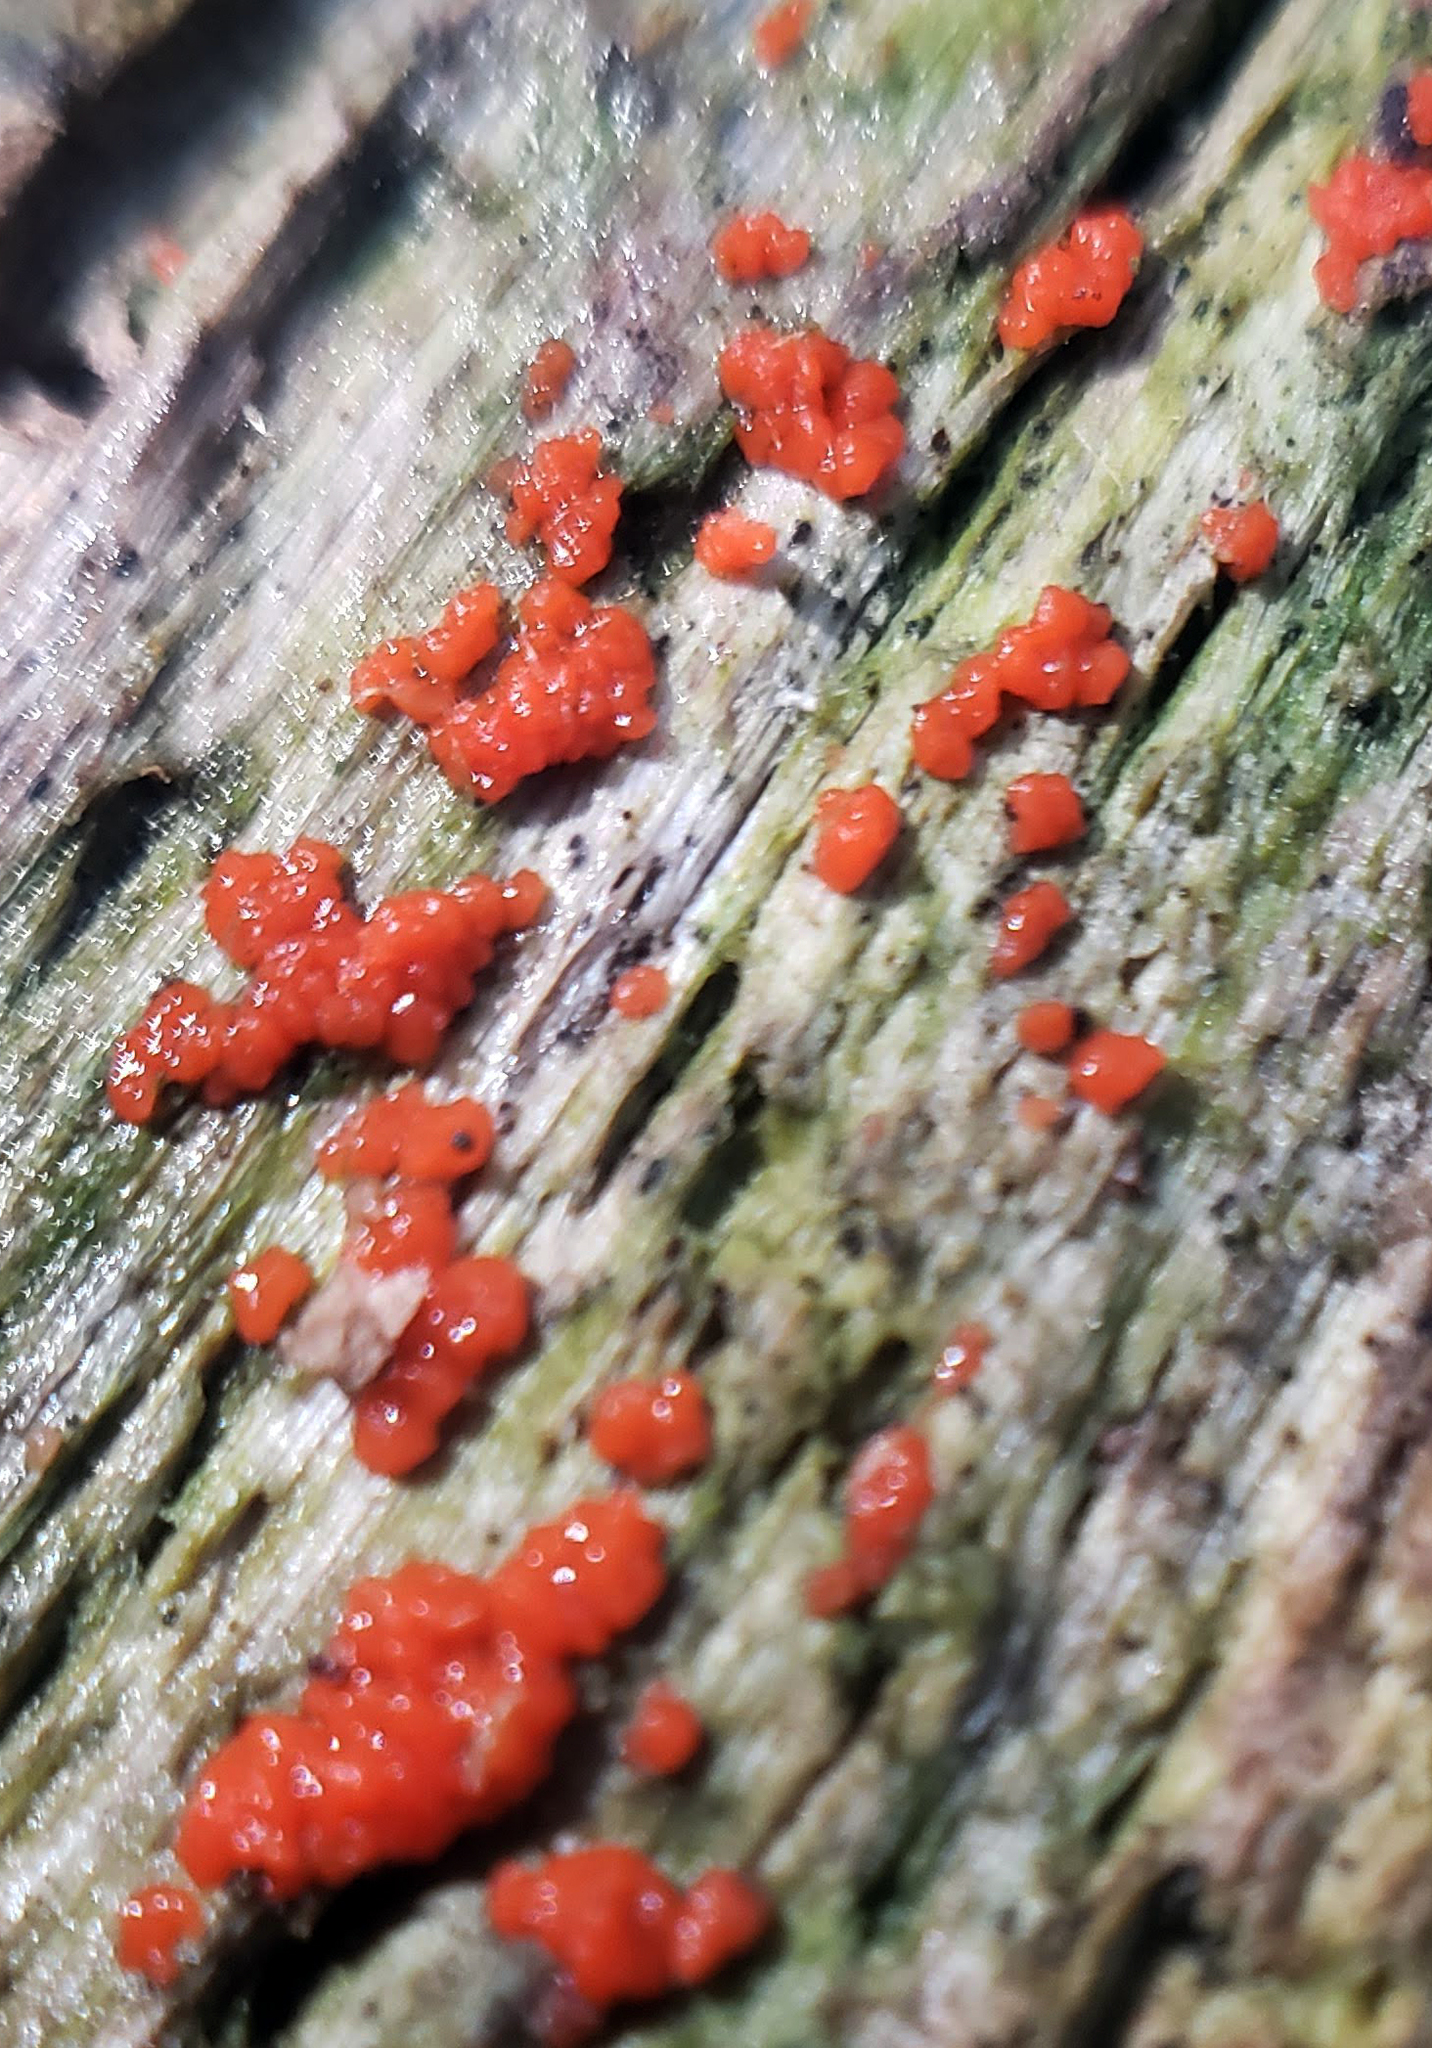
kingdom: Fungi
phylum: Basidiomycota
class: Agaricomycetes
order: Cantharellales
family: Tulasnellaceae
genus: Tulasnella
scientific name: Tulasnella aurantiaca
